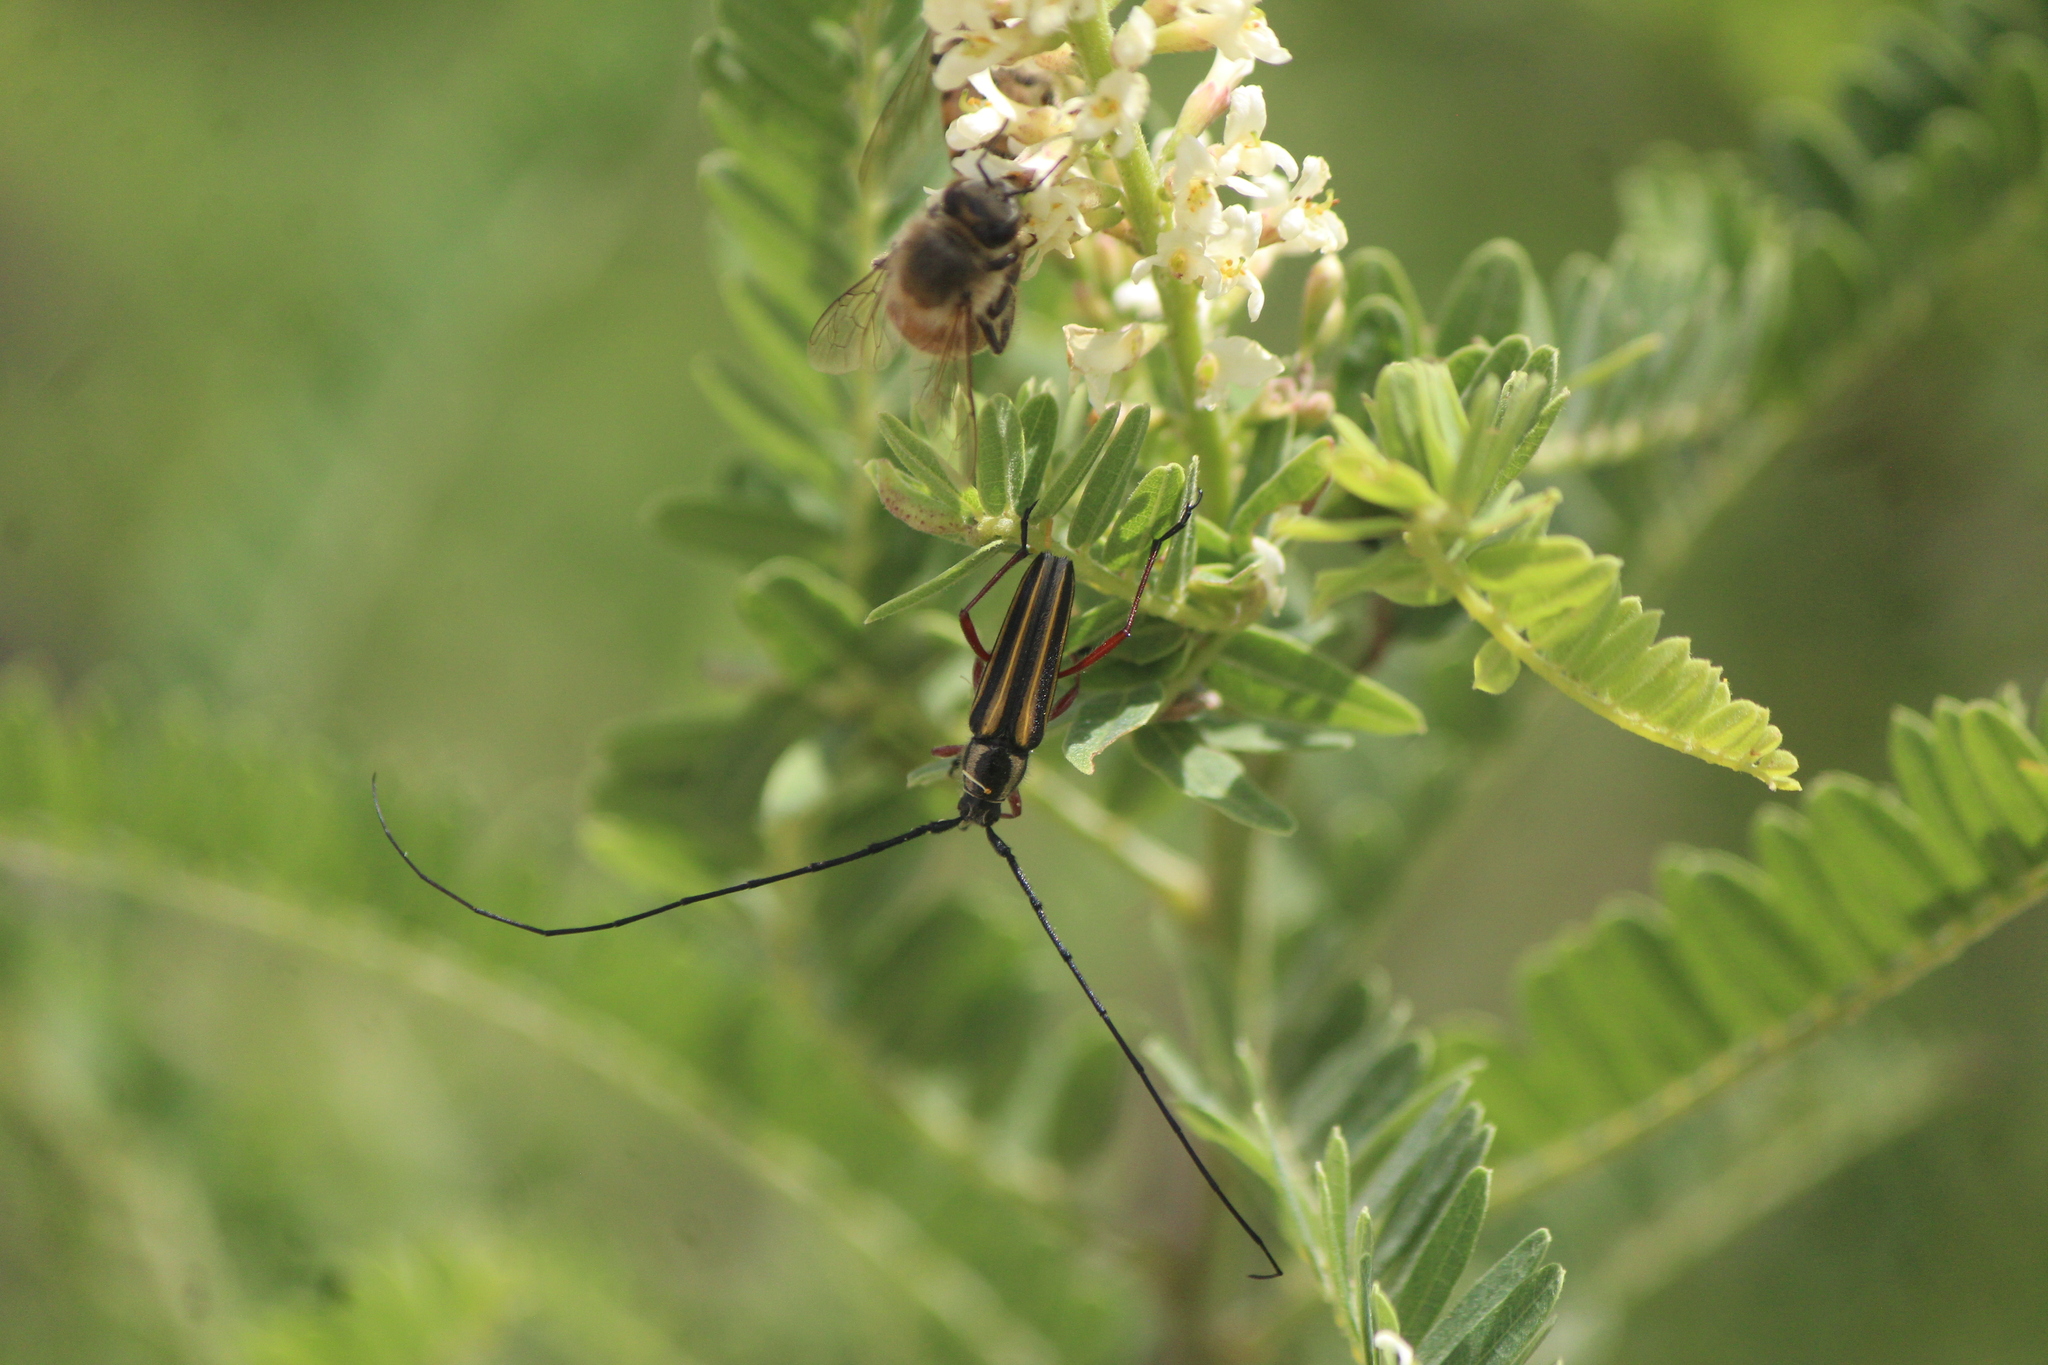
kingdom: Animalia
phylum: Arthropoda
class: Insecta
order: Coleoptera
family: Cerambycidae
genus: Sphaenothecus
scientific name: Sphaenothecus bilineatus
